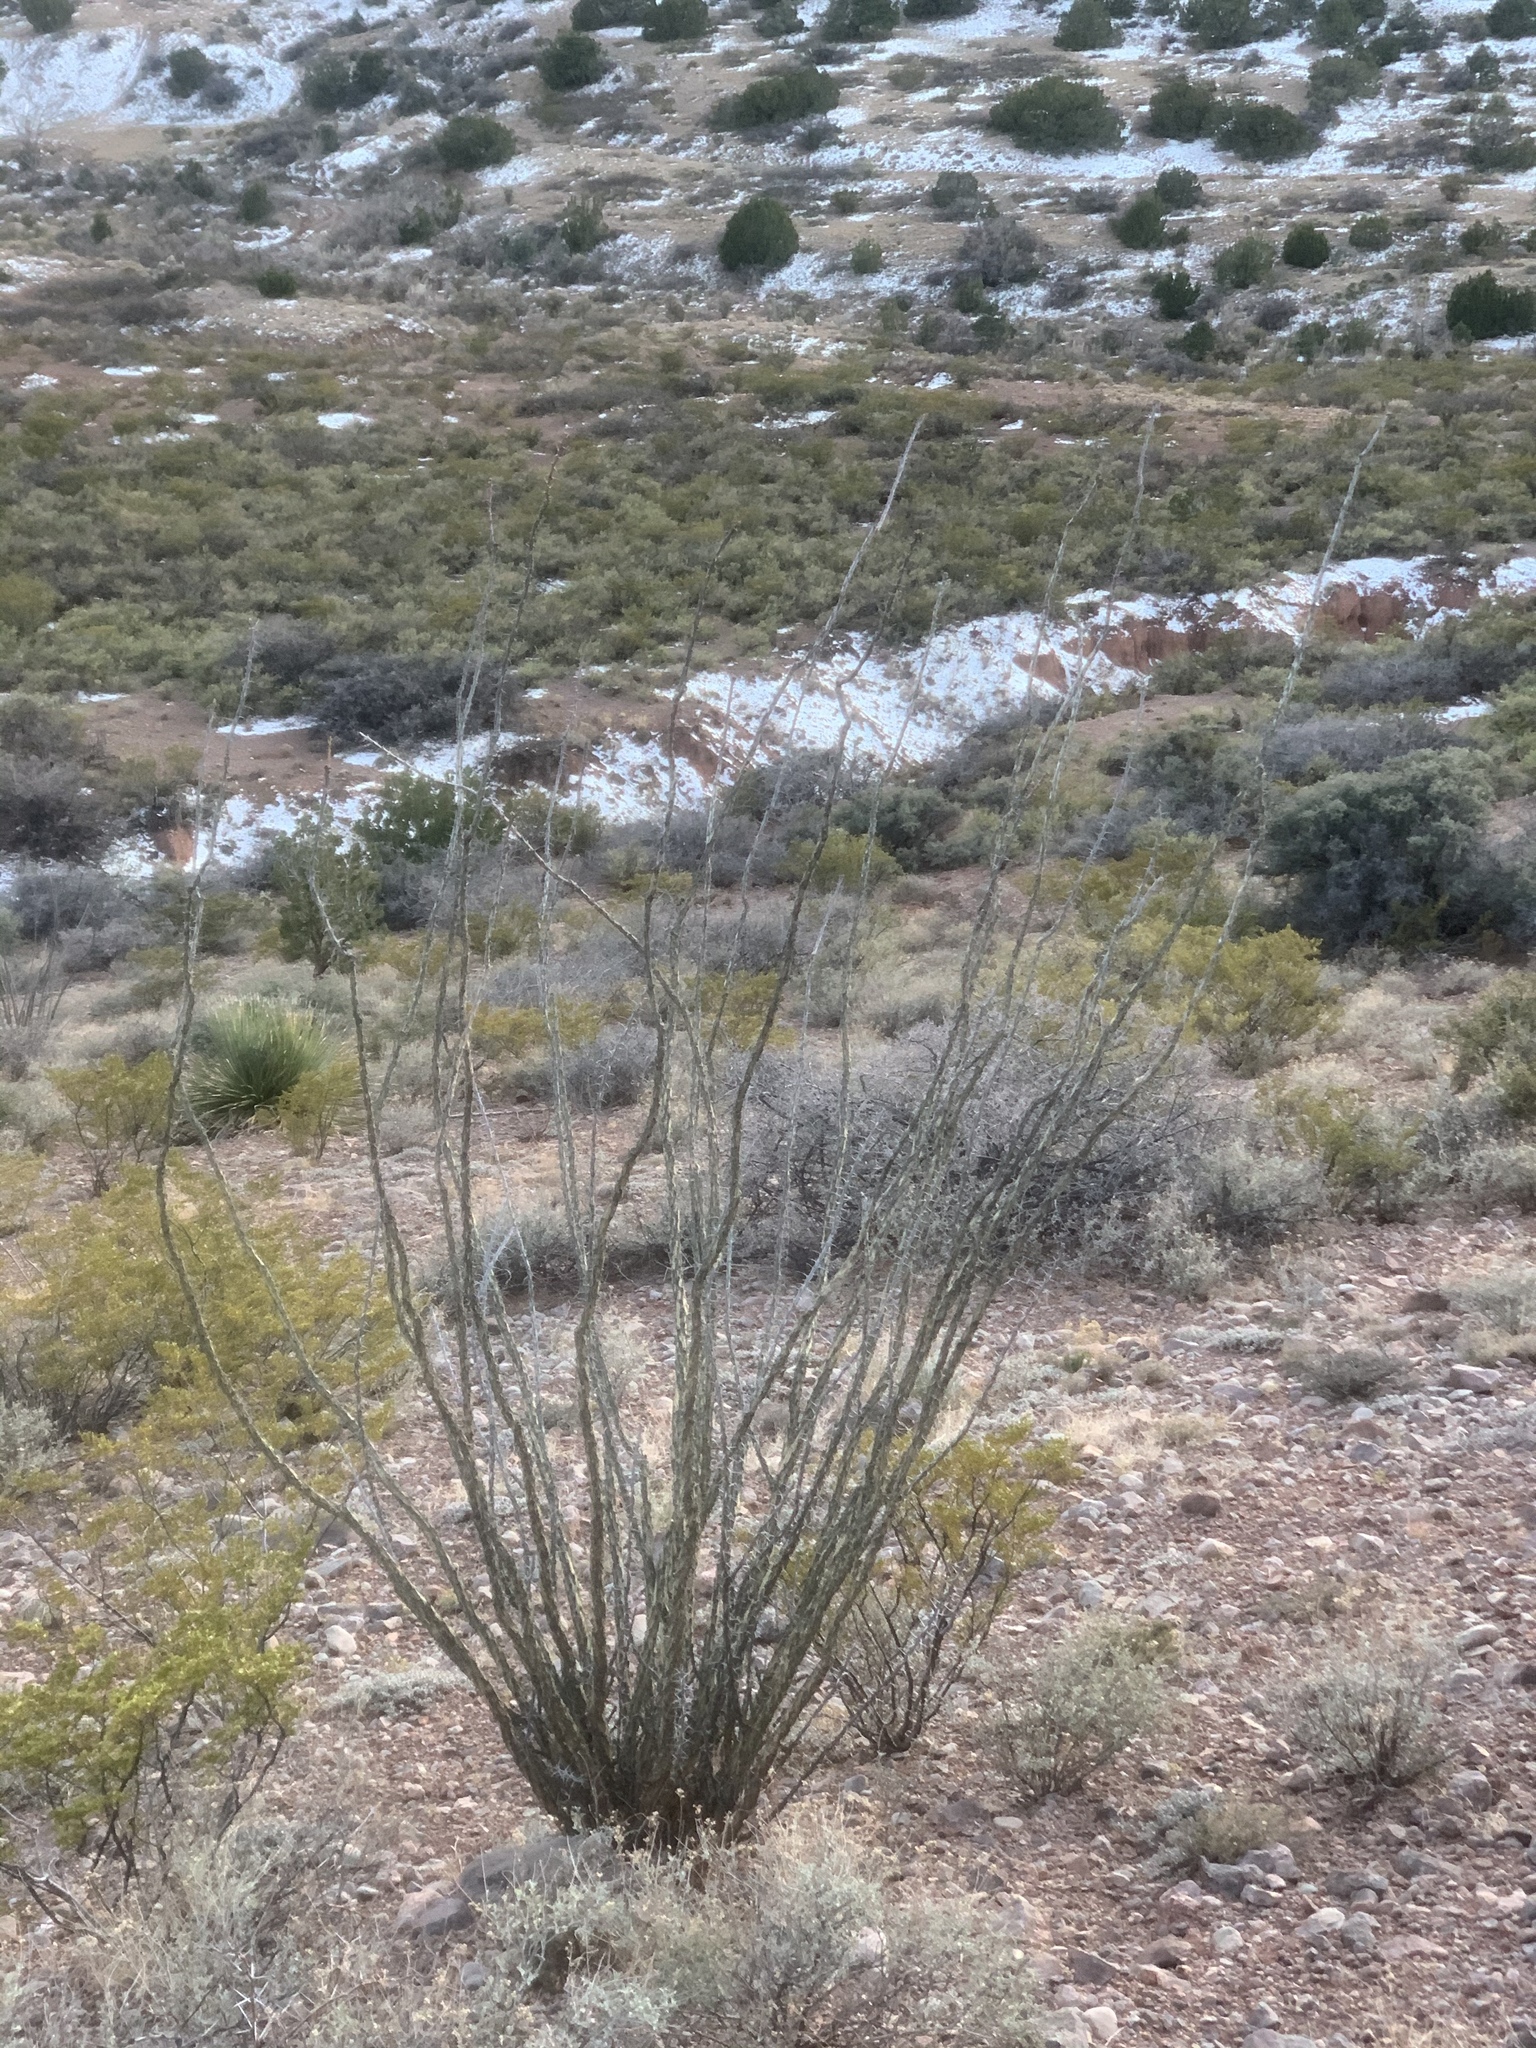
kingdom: Plantae
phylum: Tracheophyta
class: Magnoliopsida
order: Ericales
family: Fouquieriaceae
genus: Fouquieria
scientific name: Fouquieria splendens
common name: Vine-cactus
